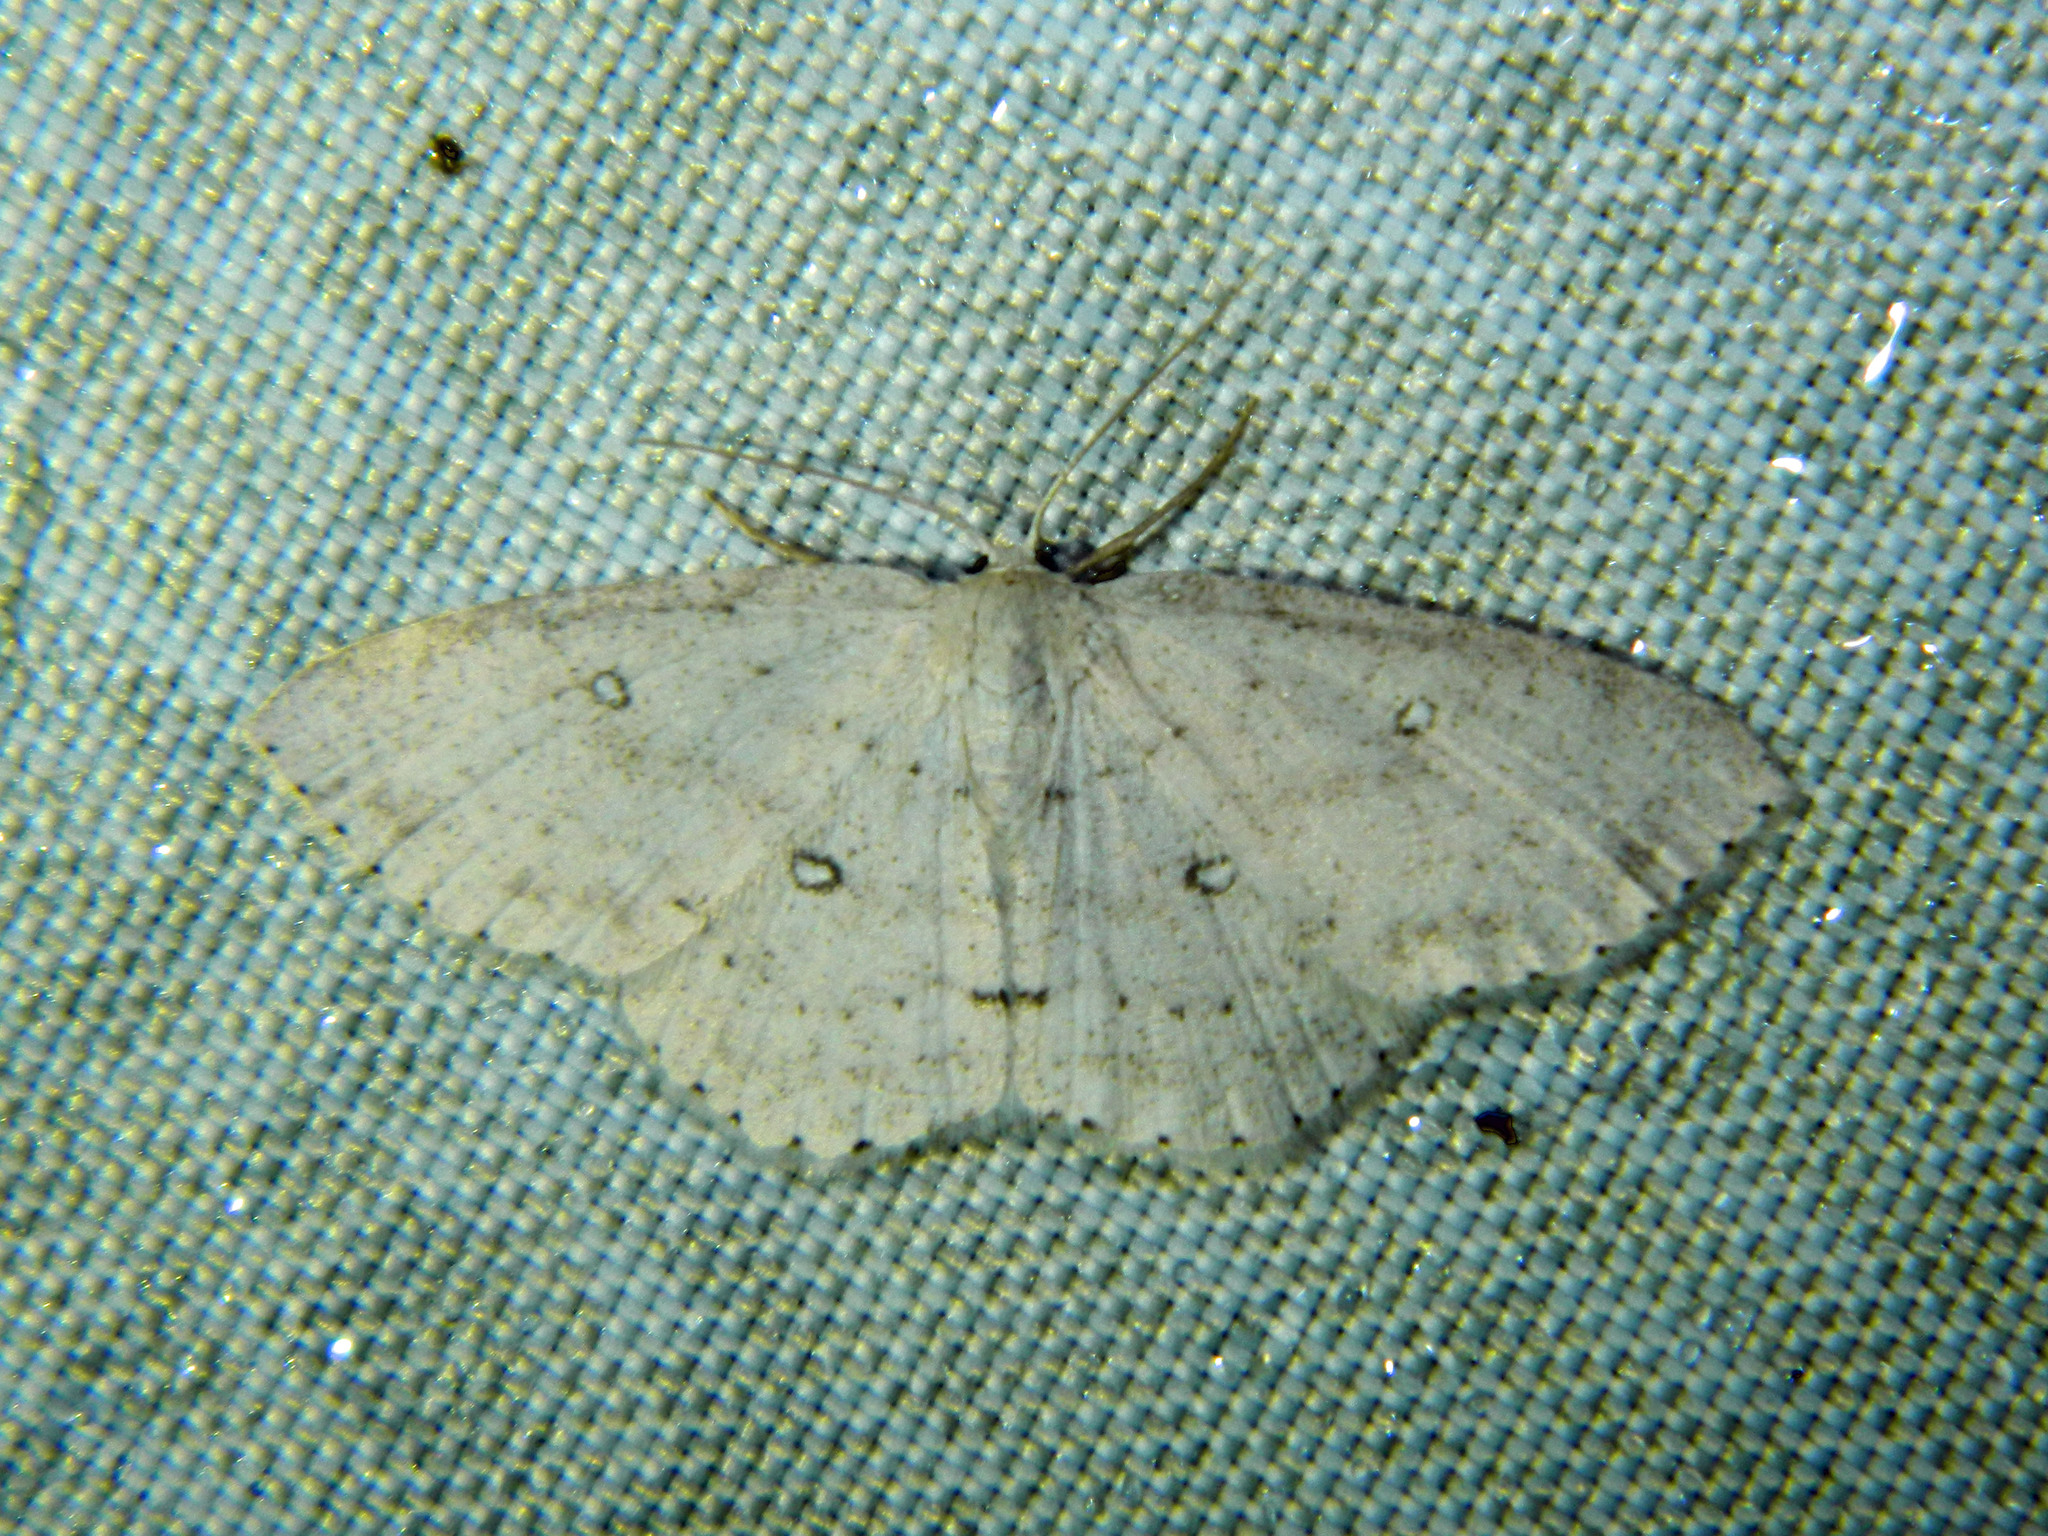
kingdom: Animalia
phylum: Arthropoda
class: Insecta
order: Lepidoptera
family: Geometridae
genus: Cyclophora
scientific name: Cyclophora pendulinaria
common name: Sweet fern geometer
